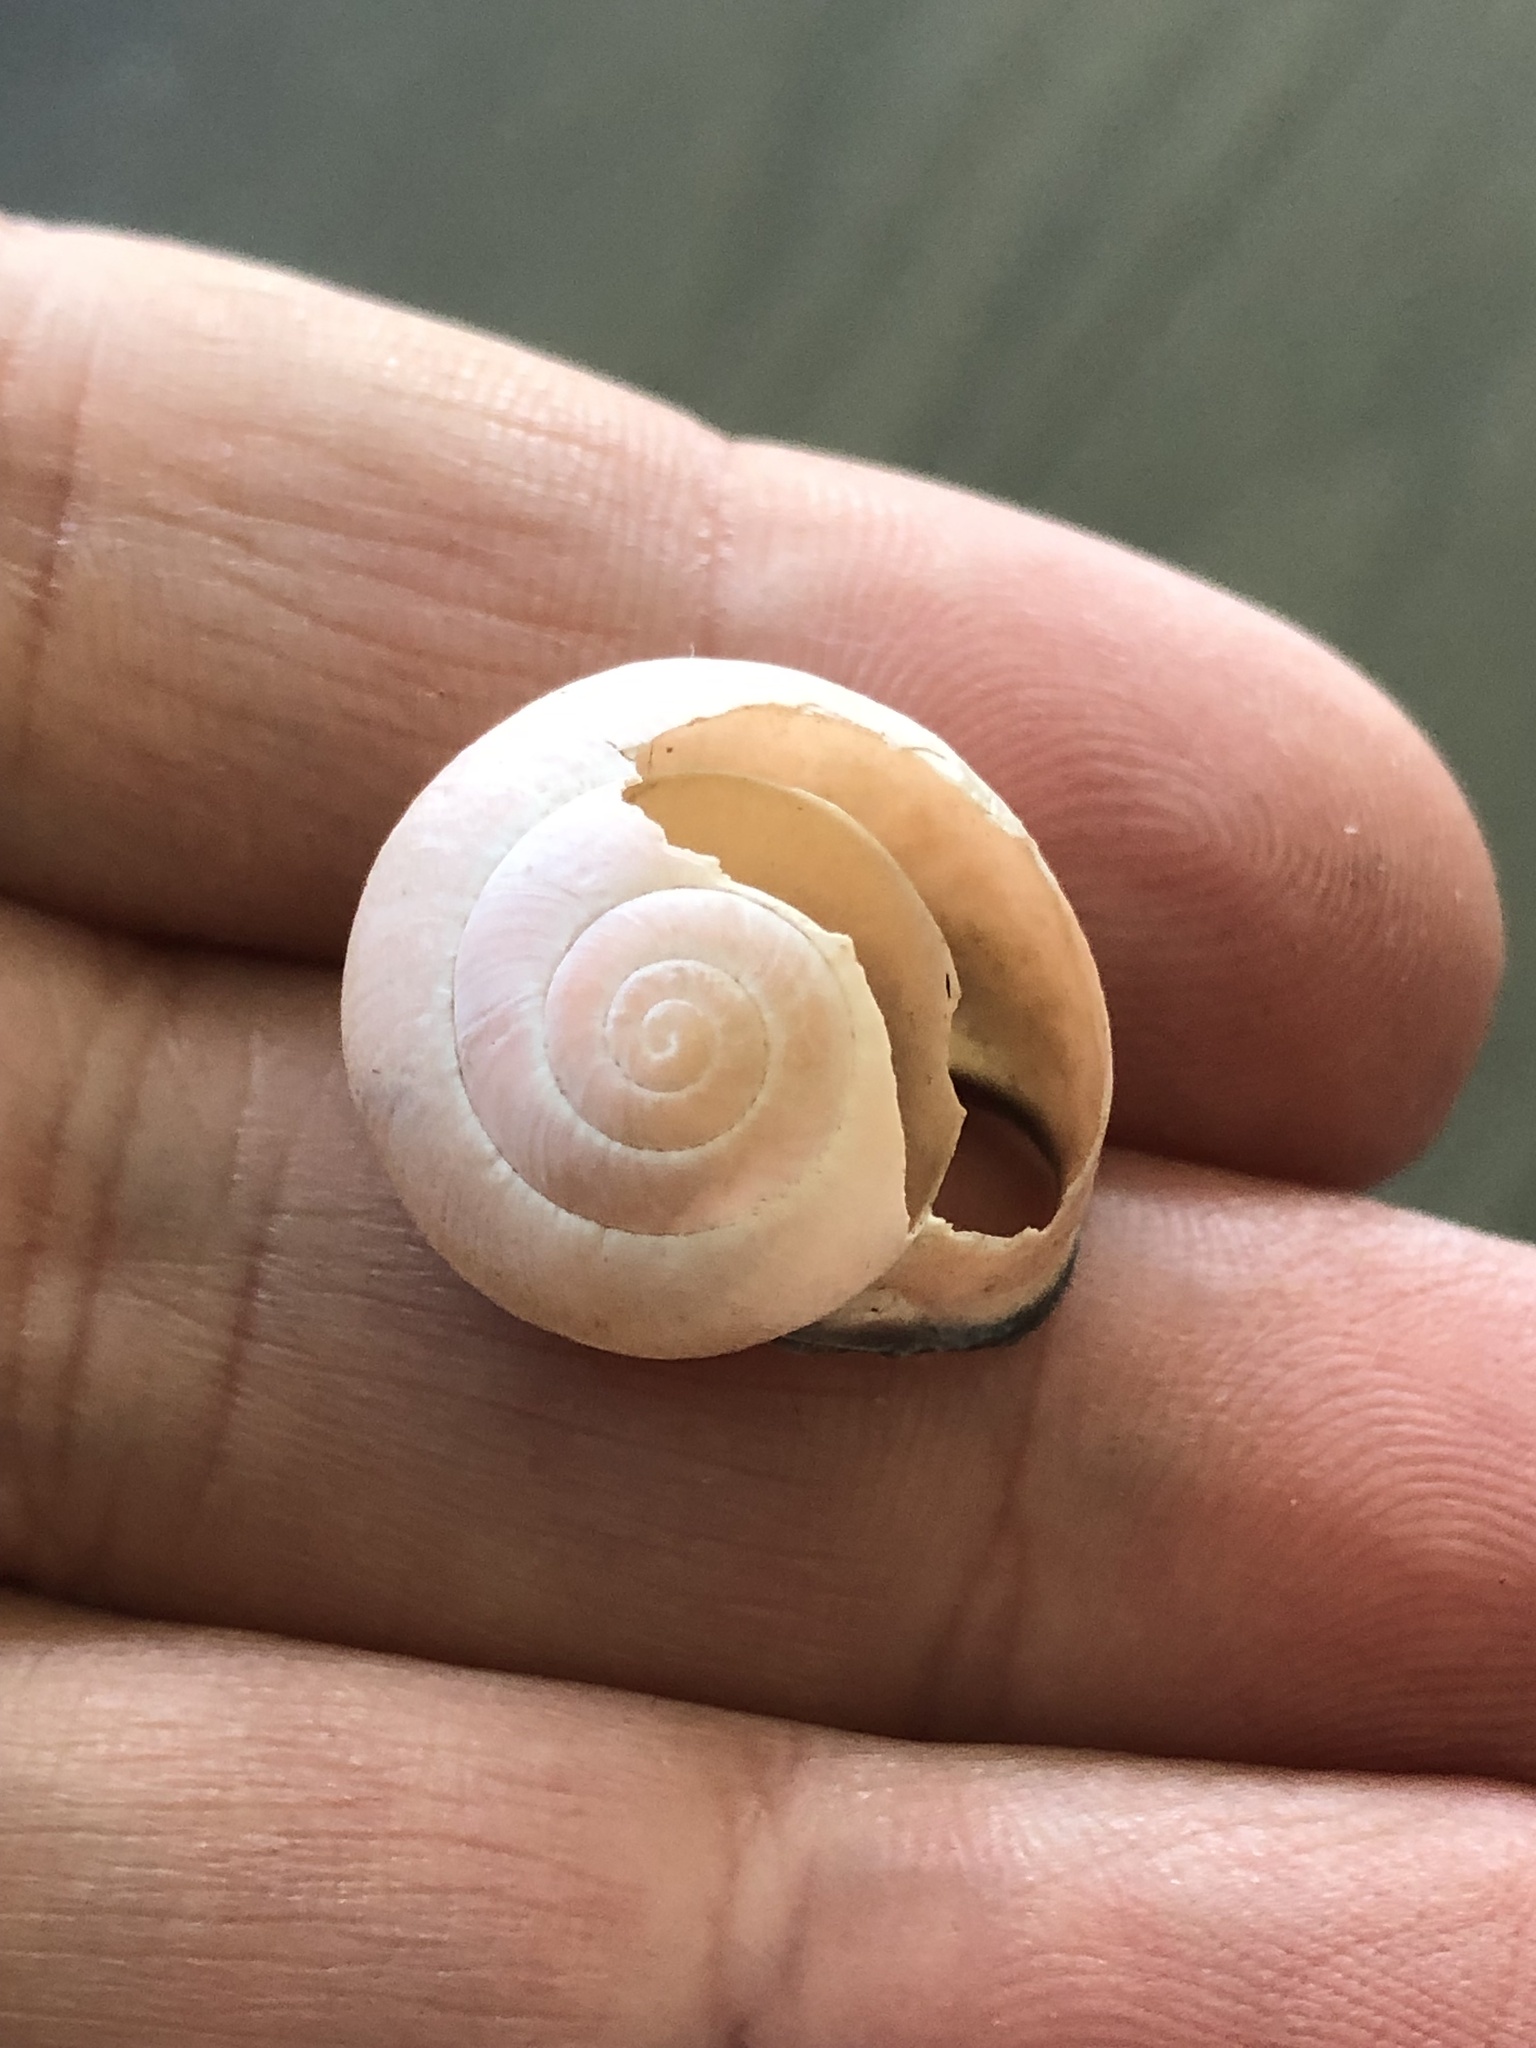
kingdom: Animalia
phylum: Mollusca
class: Gastropoda
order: Stylommatophora
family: Helicidae
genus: Cepaea
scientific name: Cepaea nemoralis
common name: Grovesnail
